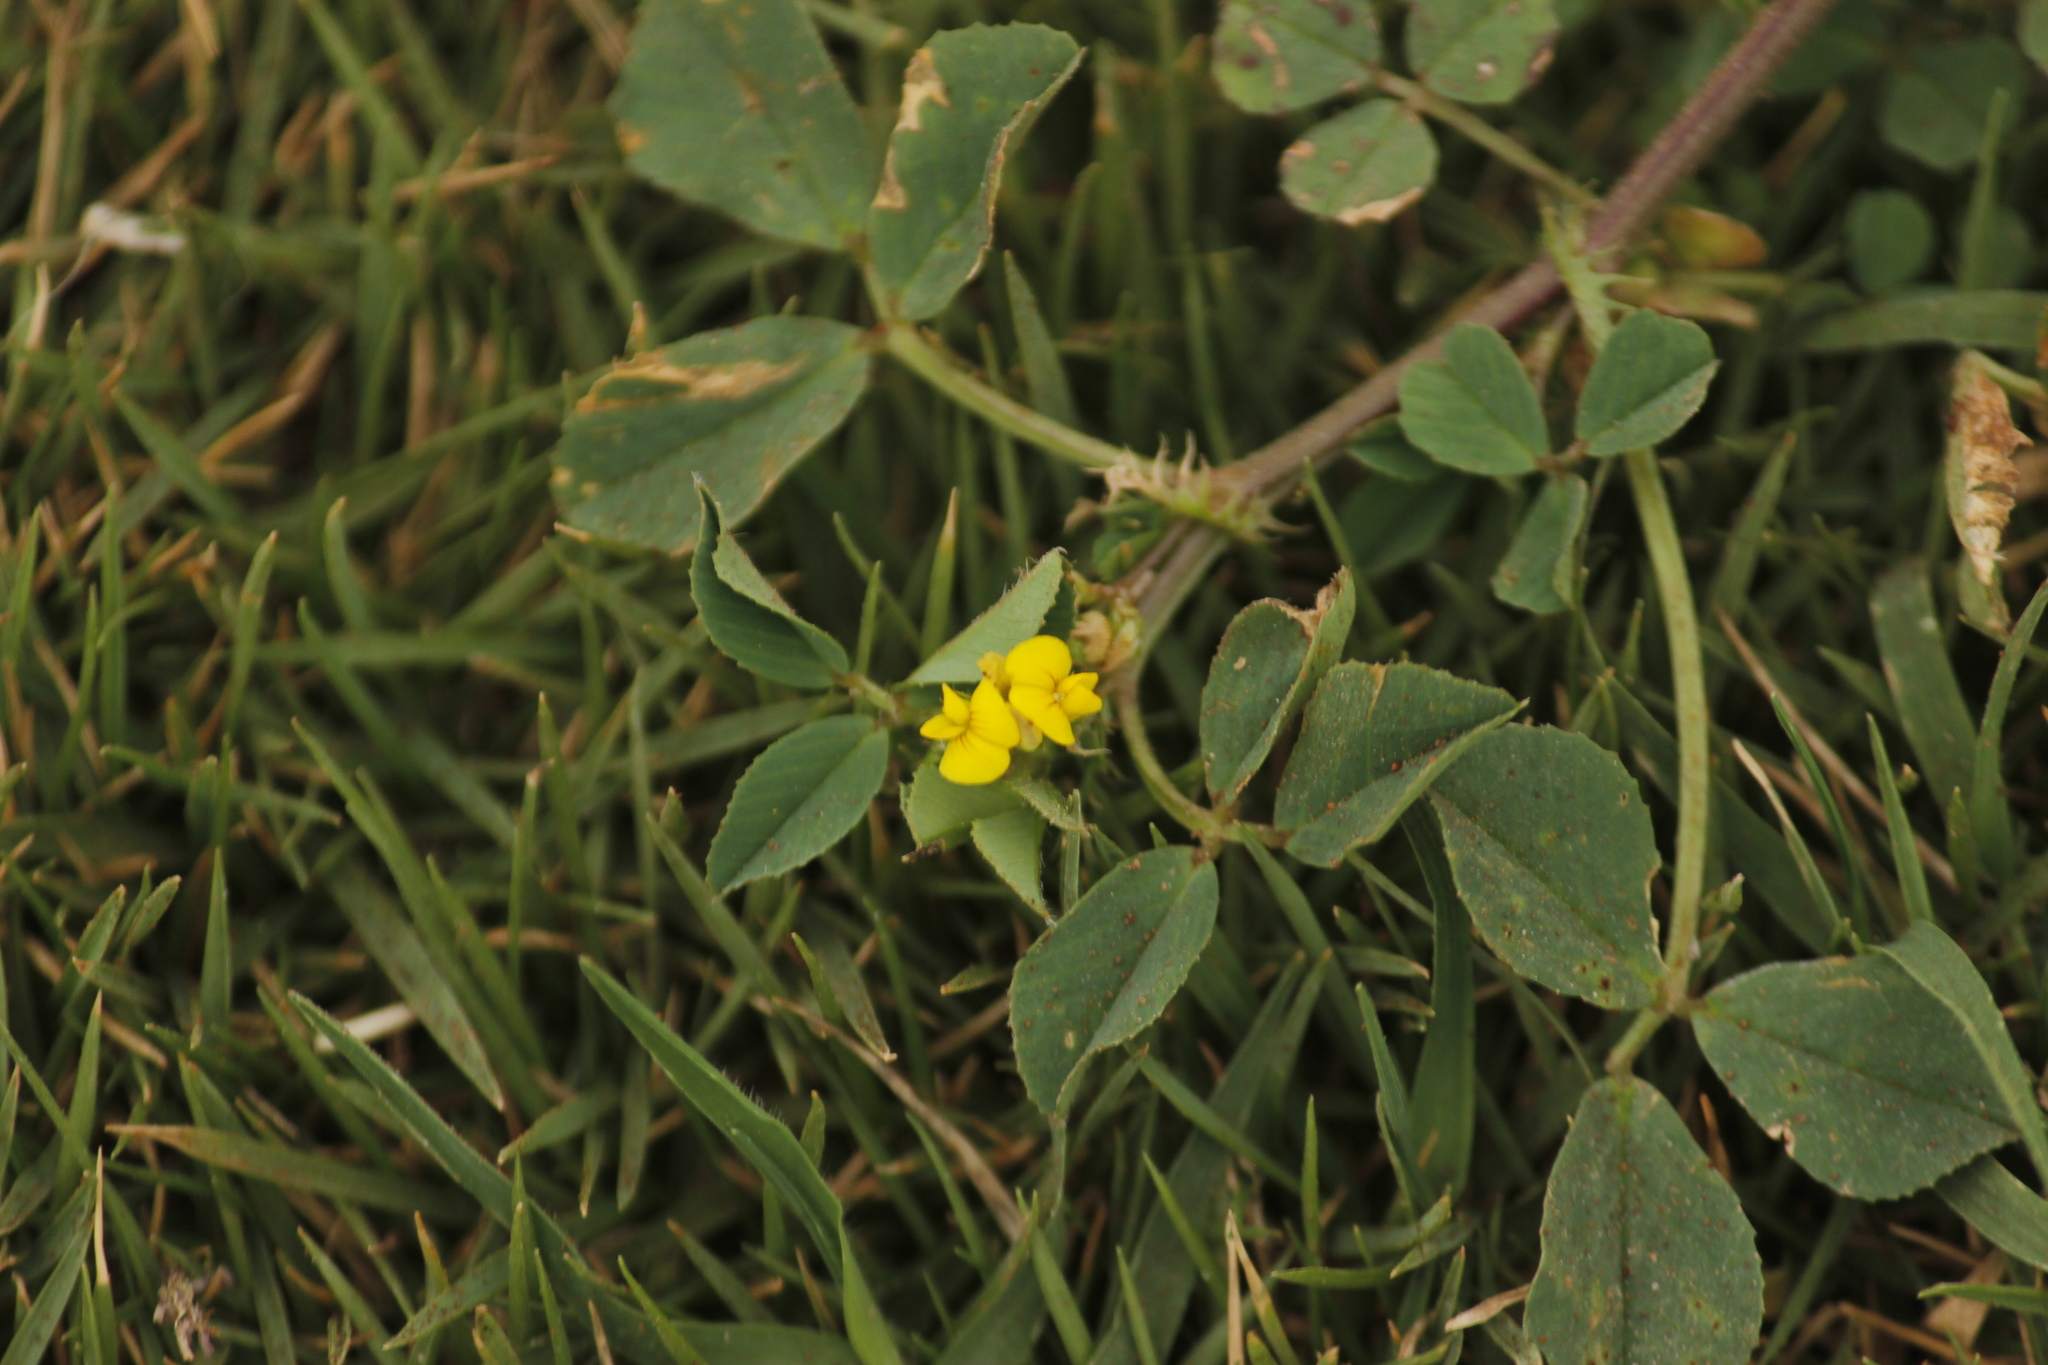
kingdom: Plantae
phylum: Tracheophyta
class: Magnoliopsida
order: Fabales
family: Fabaceae
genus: Medicago
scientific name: Medicago polymorpha
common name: Burclover
